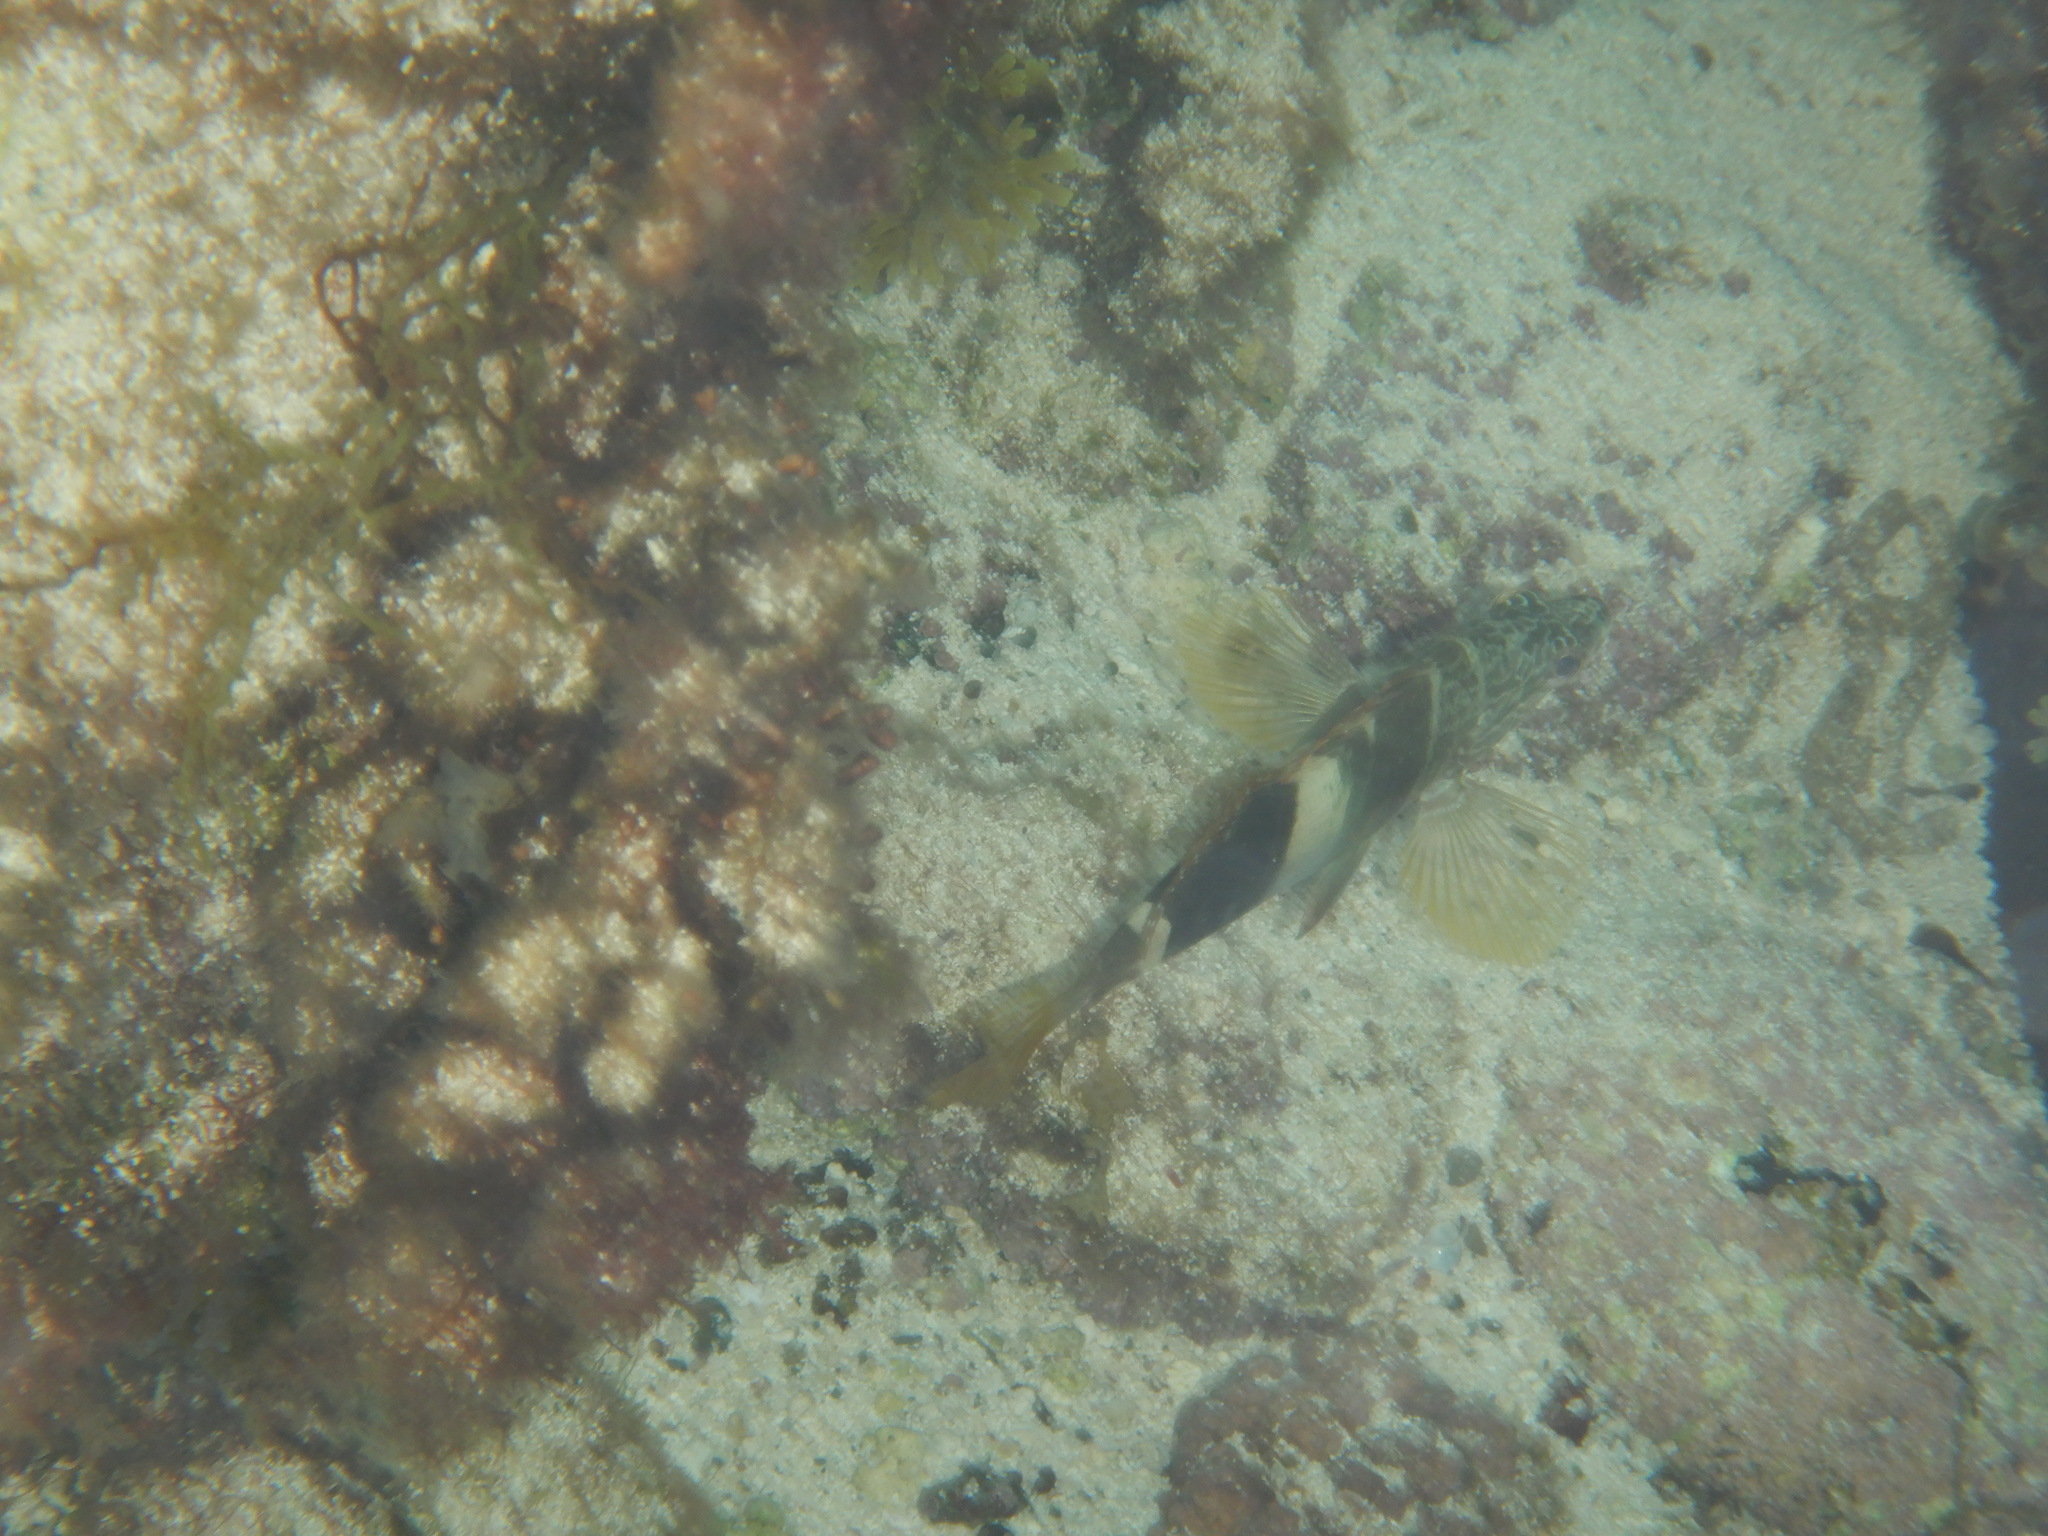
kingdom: Animalia
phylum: Chordata
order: Perciformes
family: Serranidae
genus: Serranus
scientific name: Serranus scriba
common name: Painted comber
